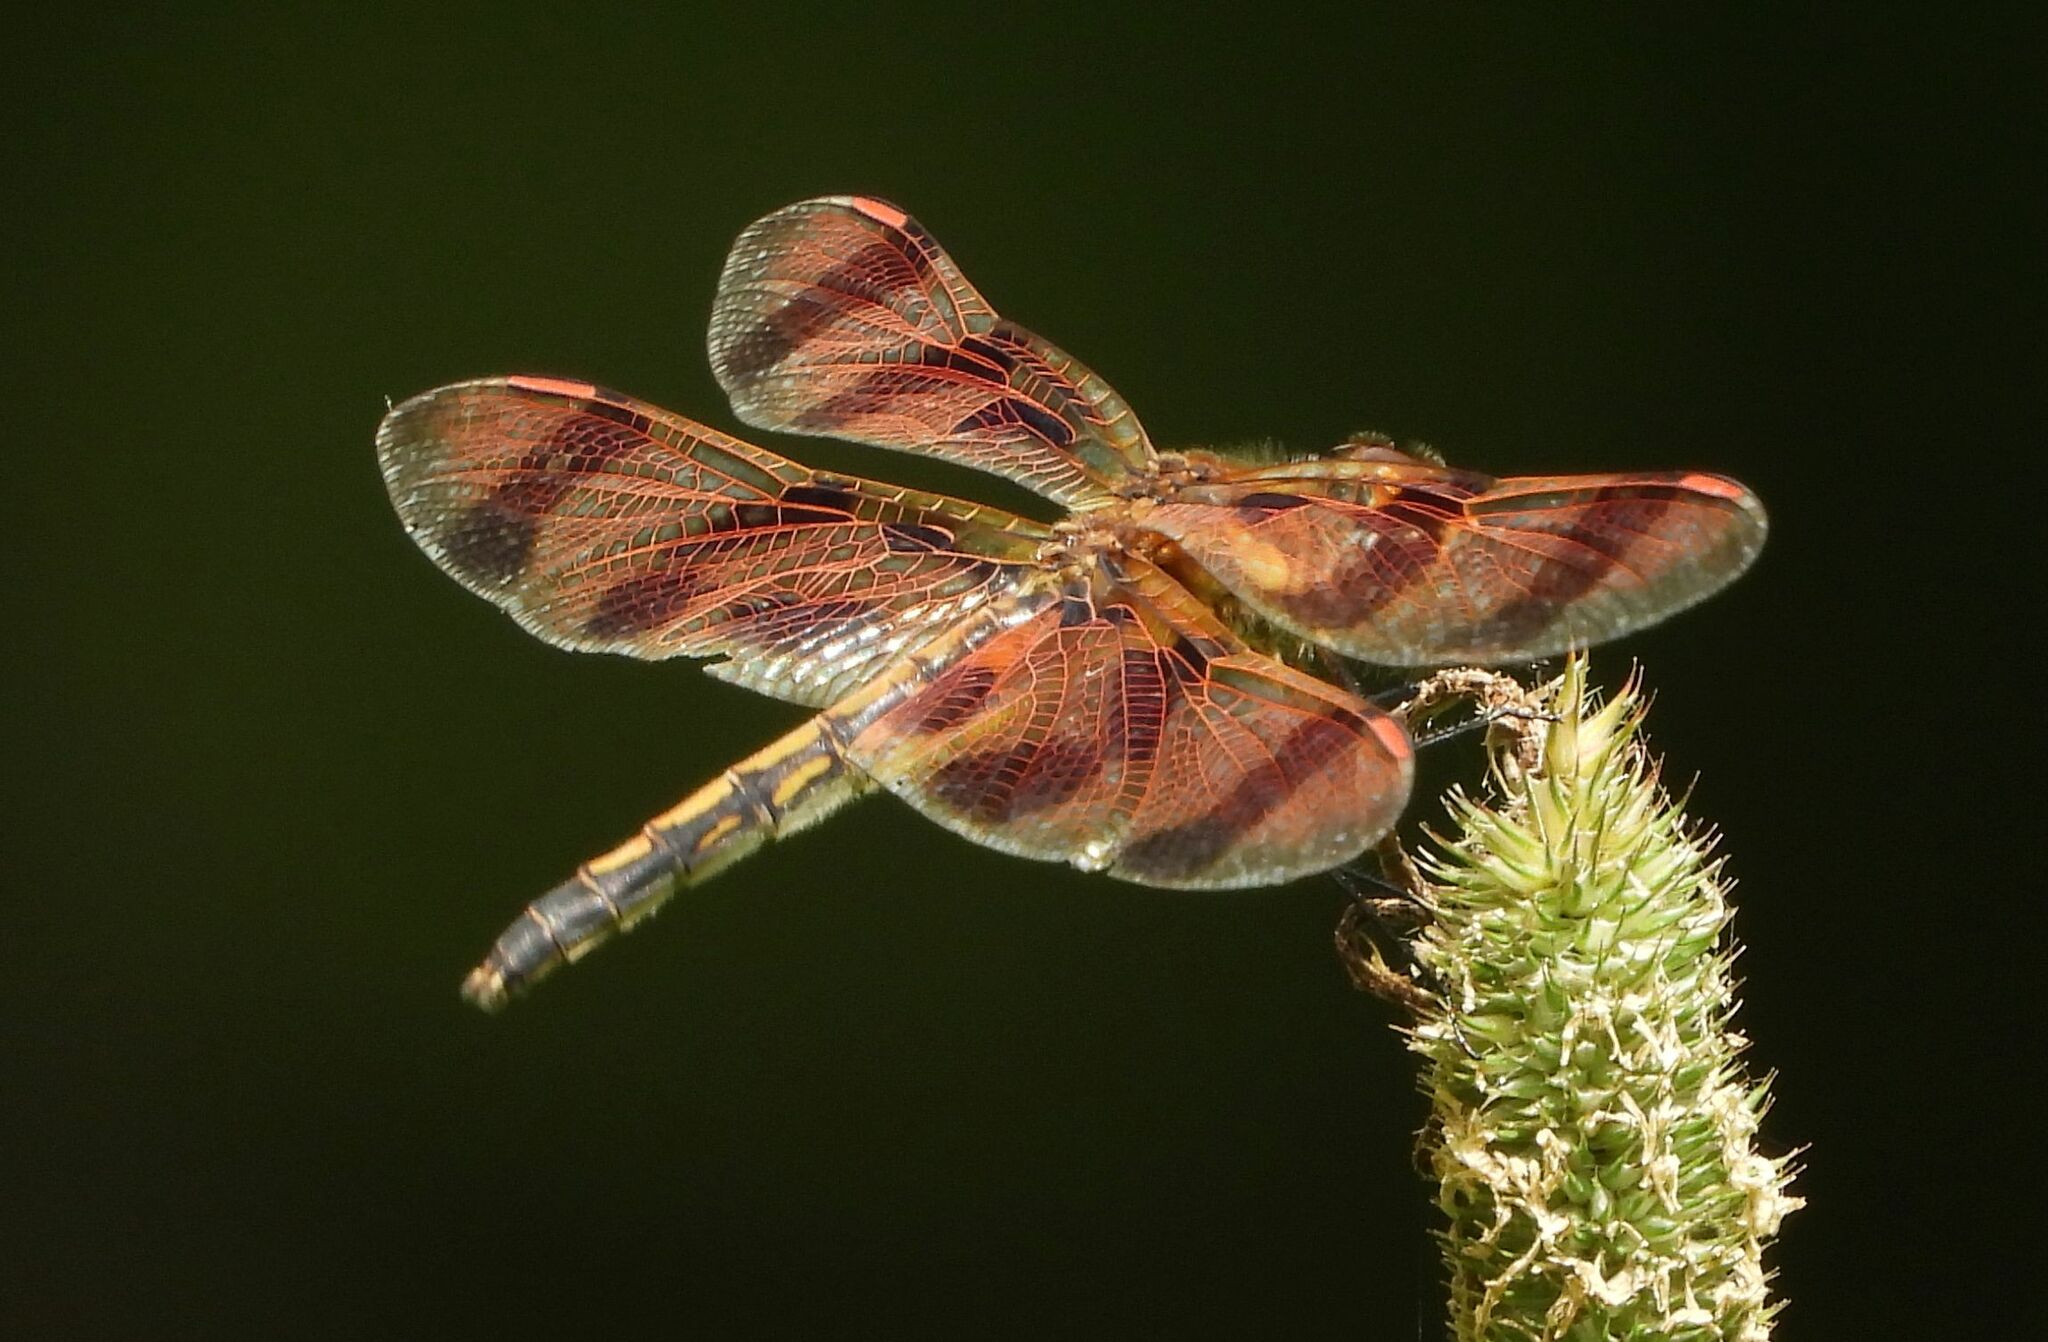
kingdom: Animalia
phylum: Arthropoda
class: Insecta
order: Odonata
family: Libellulidae
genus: Celithemis
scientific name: Celithemis eponina
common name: Halloween pennant
